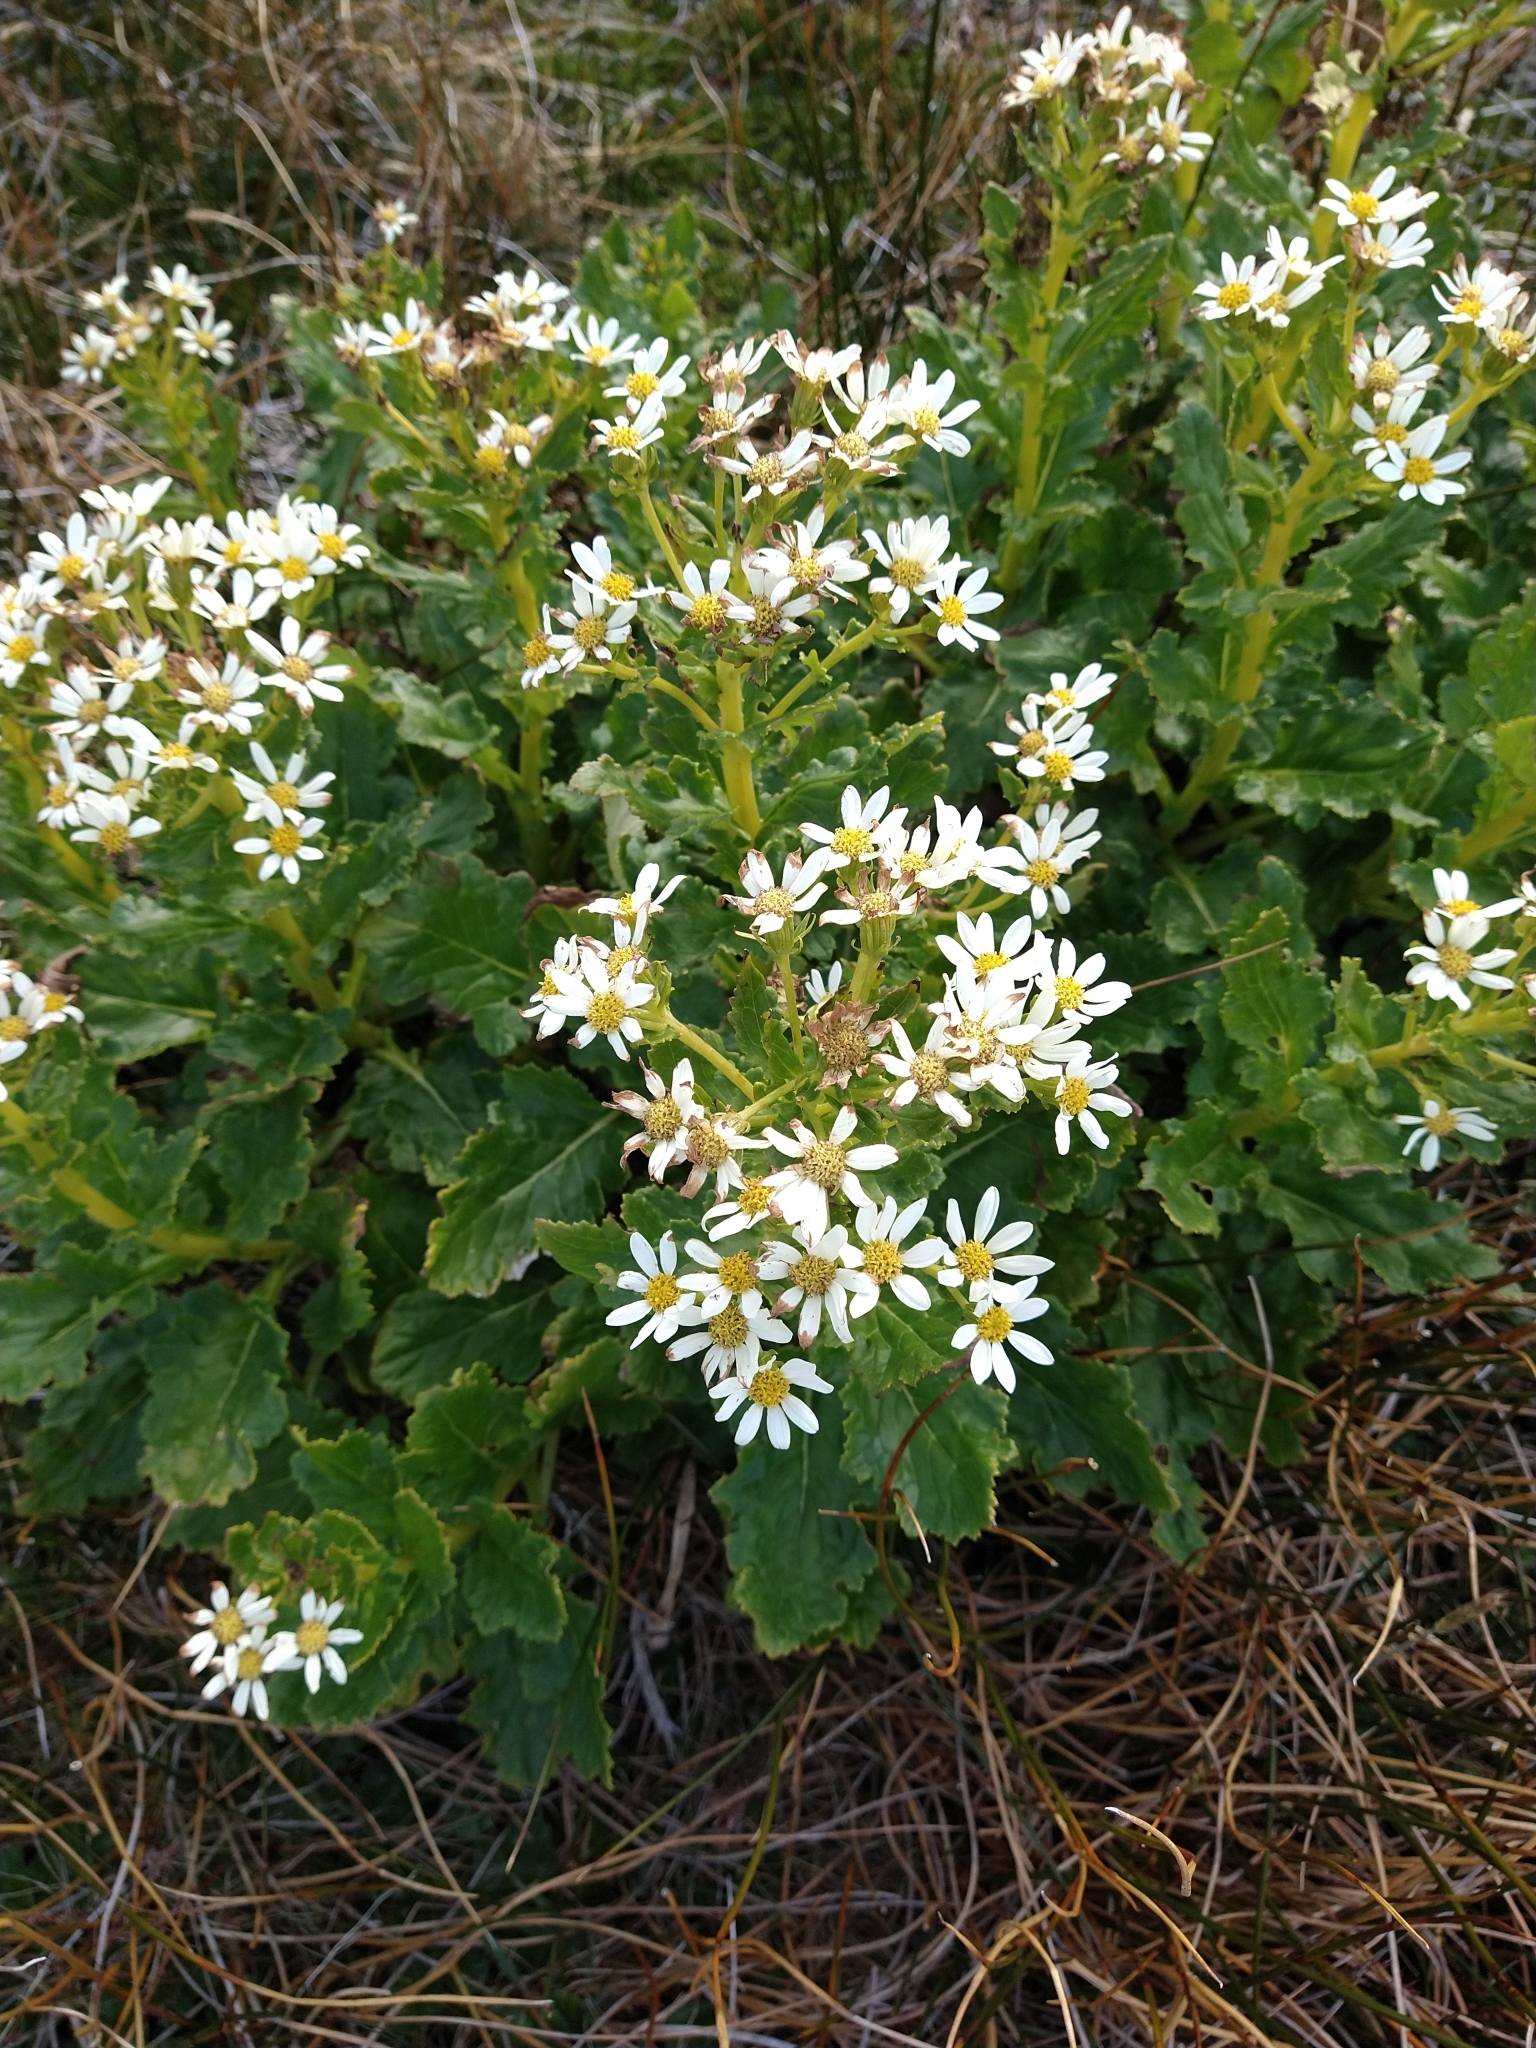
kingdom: Plantae
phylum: Tracheophyta
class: Magnoliopsida
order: Asterales
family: Asteraceae
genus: Iocenes
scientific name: Iocenes virens
